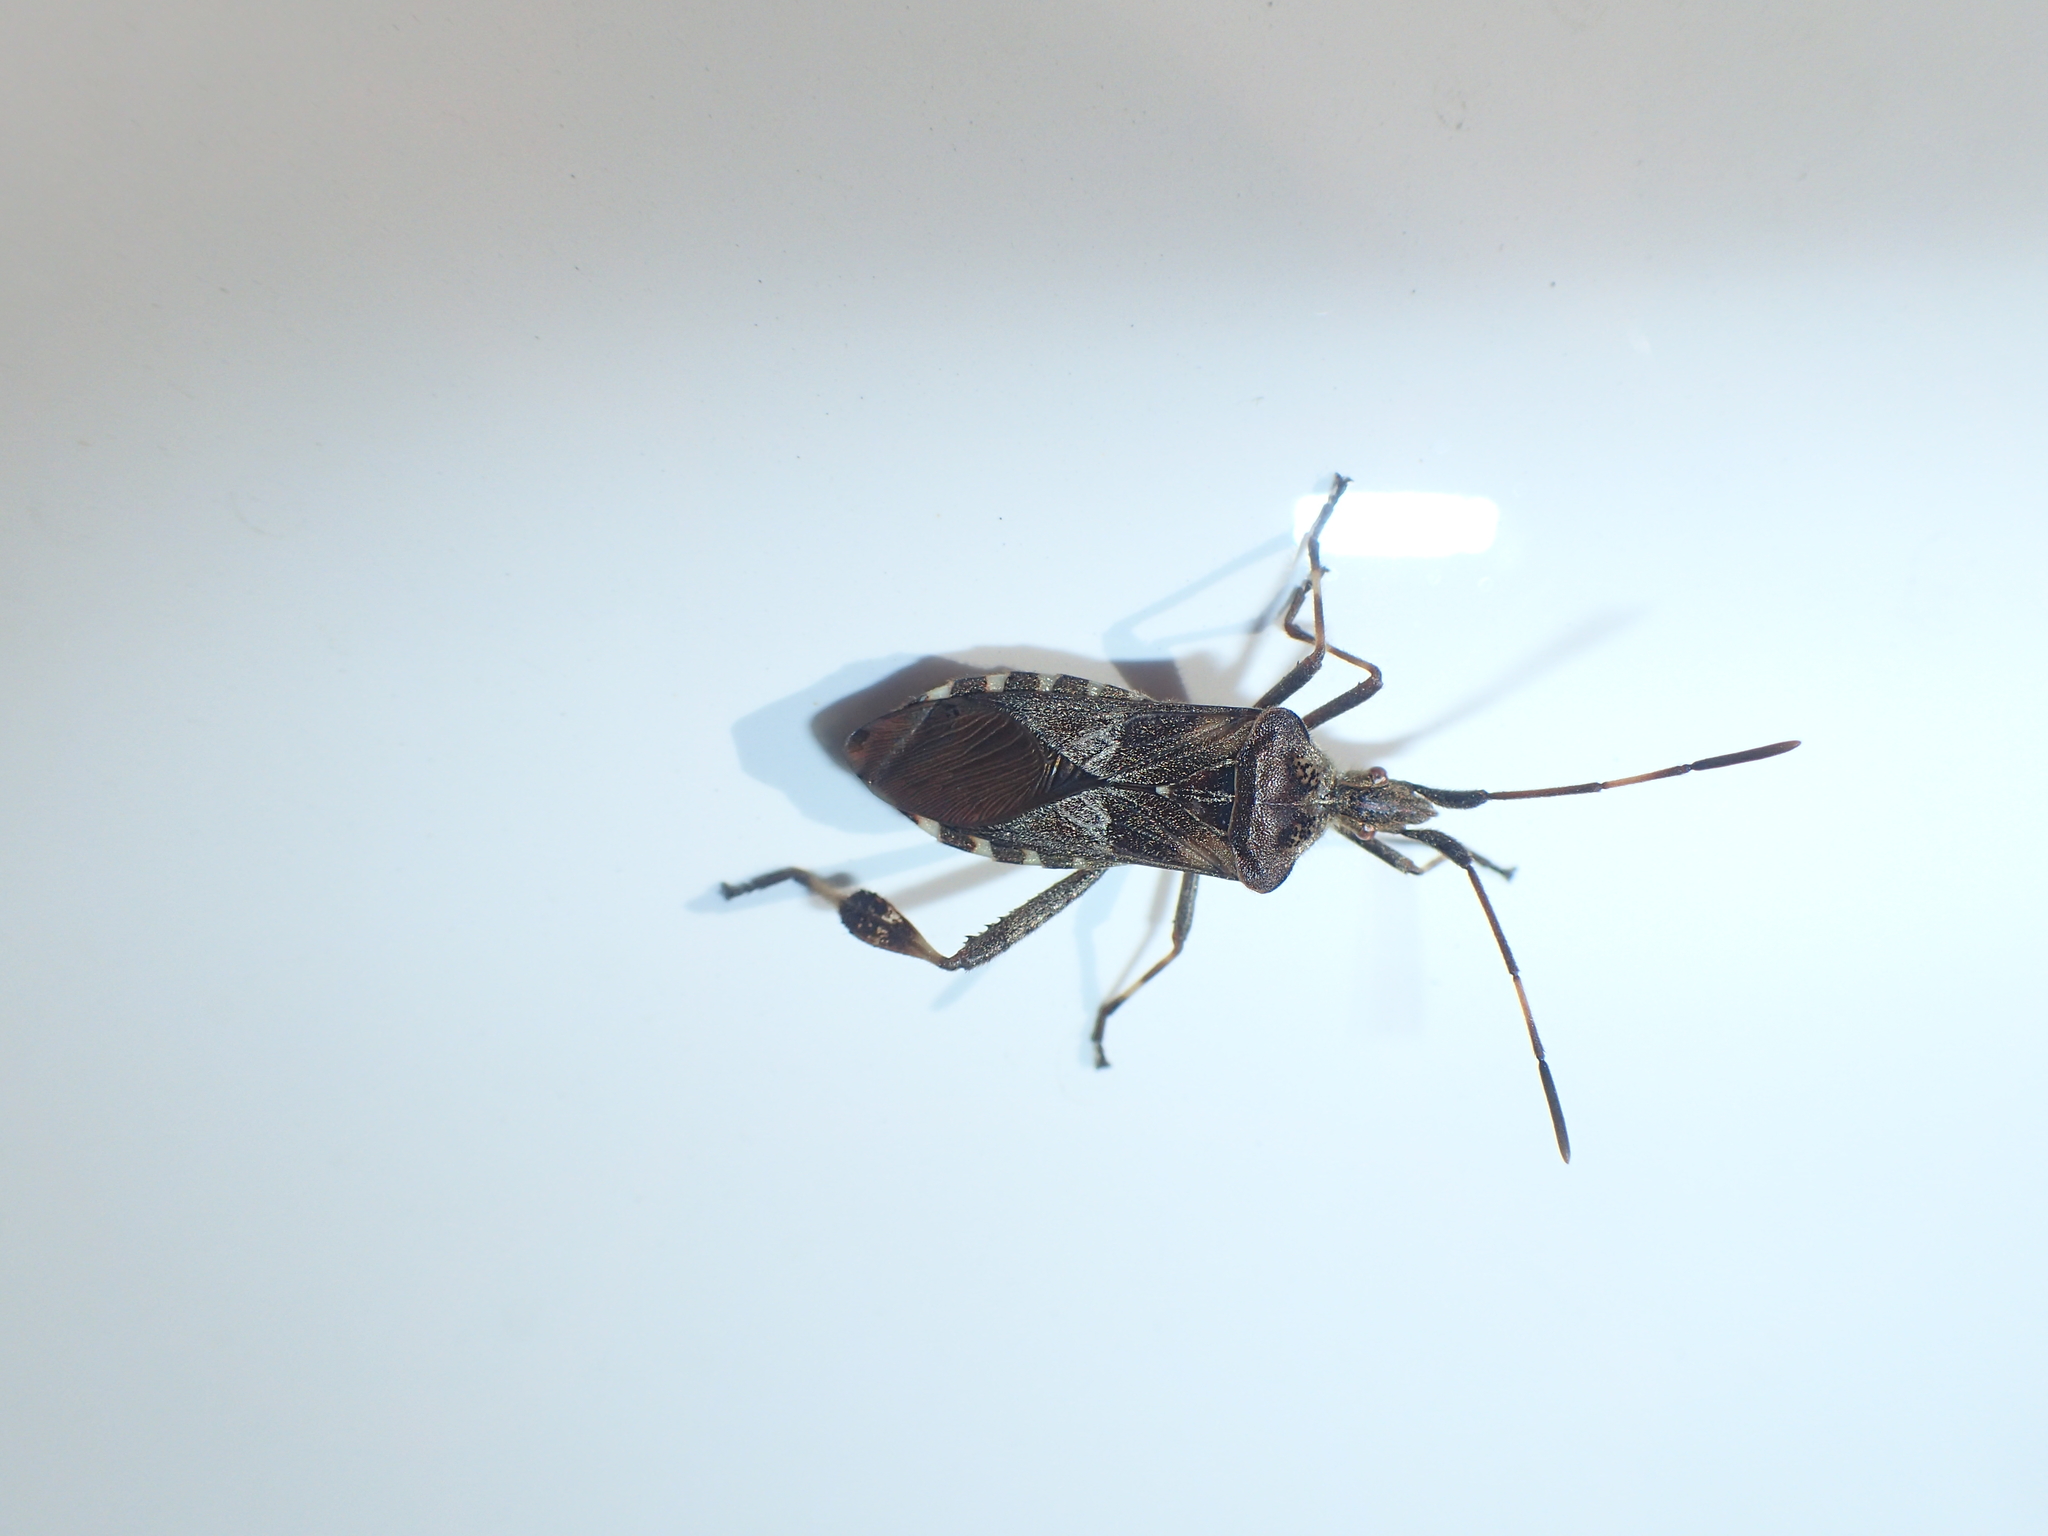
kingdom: Animalia
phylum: Arthropoda
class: Insecta
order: Hemiptera
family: Coreidae
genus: Leptoglossus
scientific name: Leptoglossus occidentalis
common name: Western conifer-seed bug
